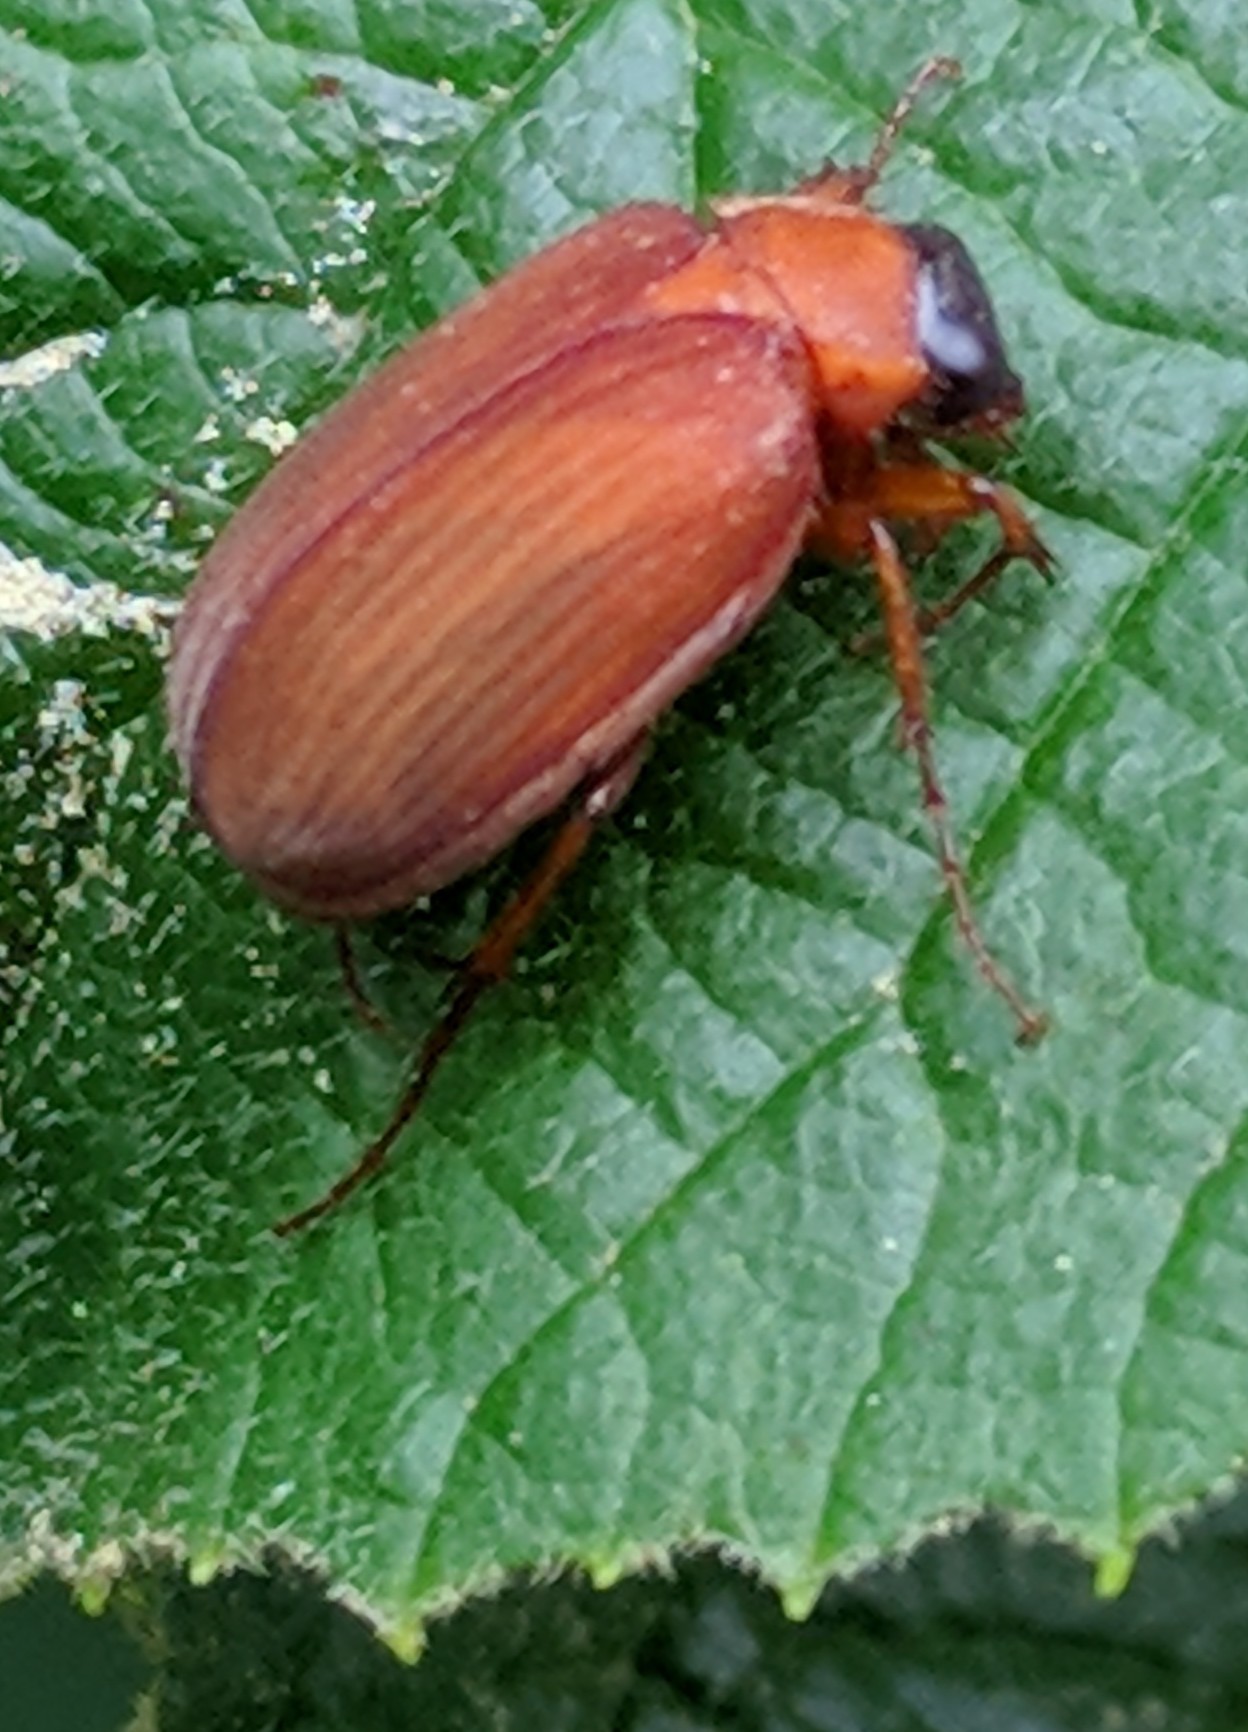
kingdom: Animalia
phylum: Arthropoda
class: Insecta
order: Coleoptera
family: Scarabaeidae
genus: Maladera
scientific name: Maladera formosae
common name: Asiatic garden beetle
